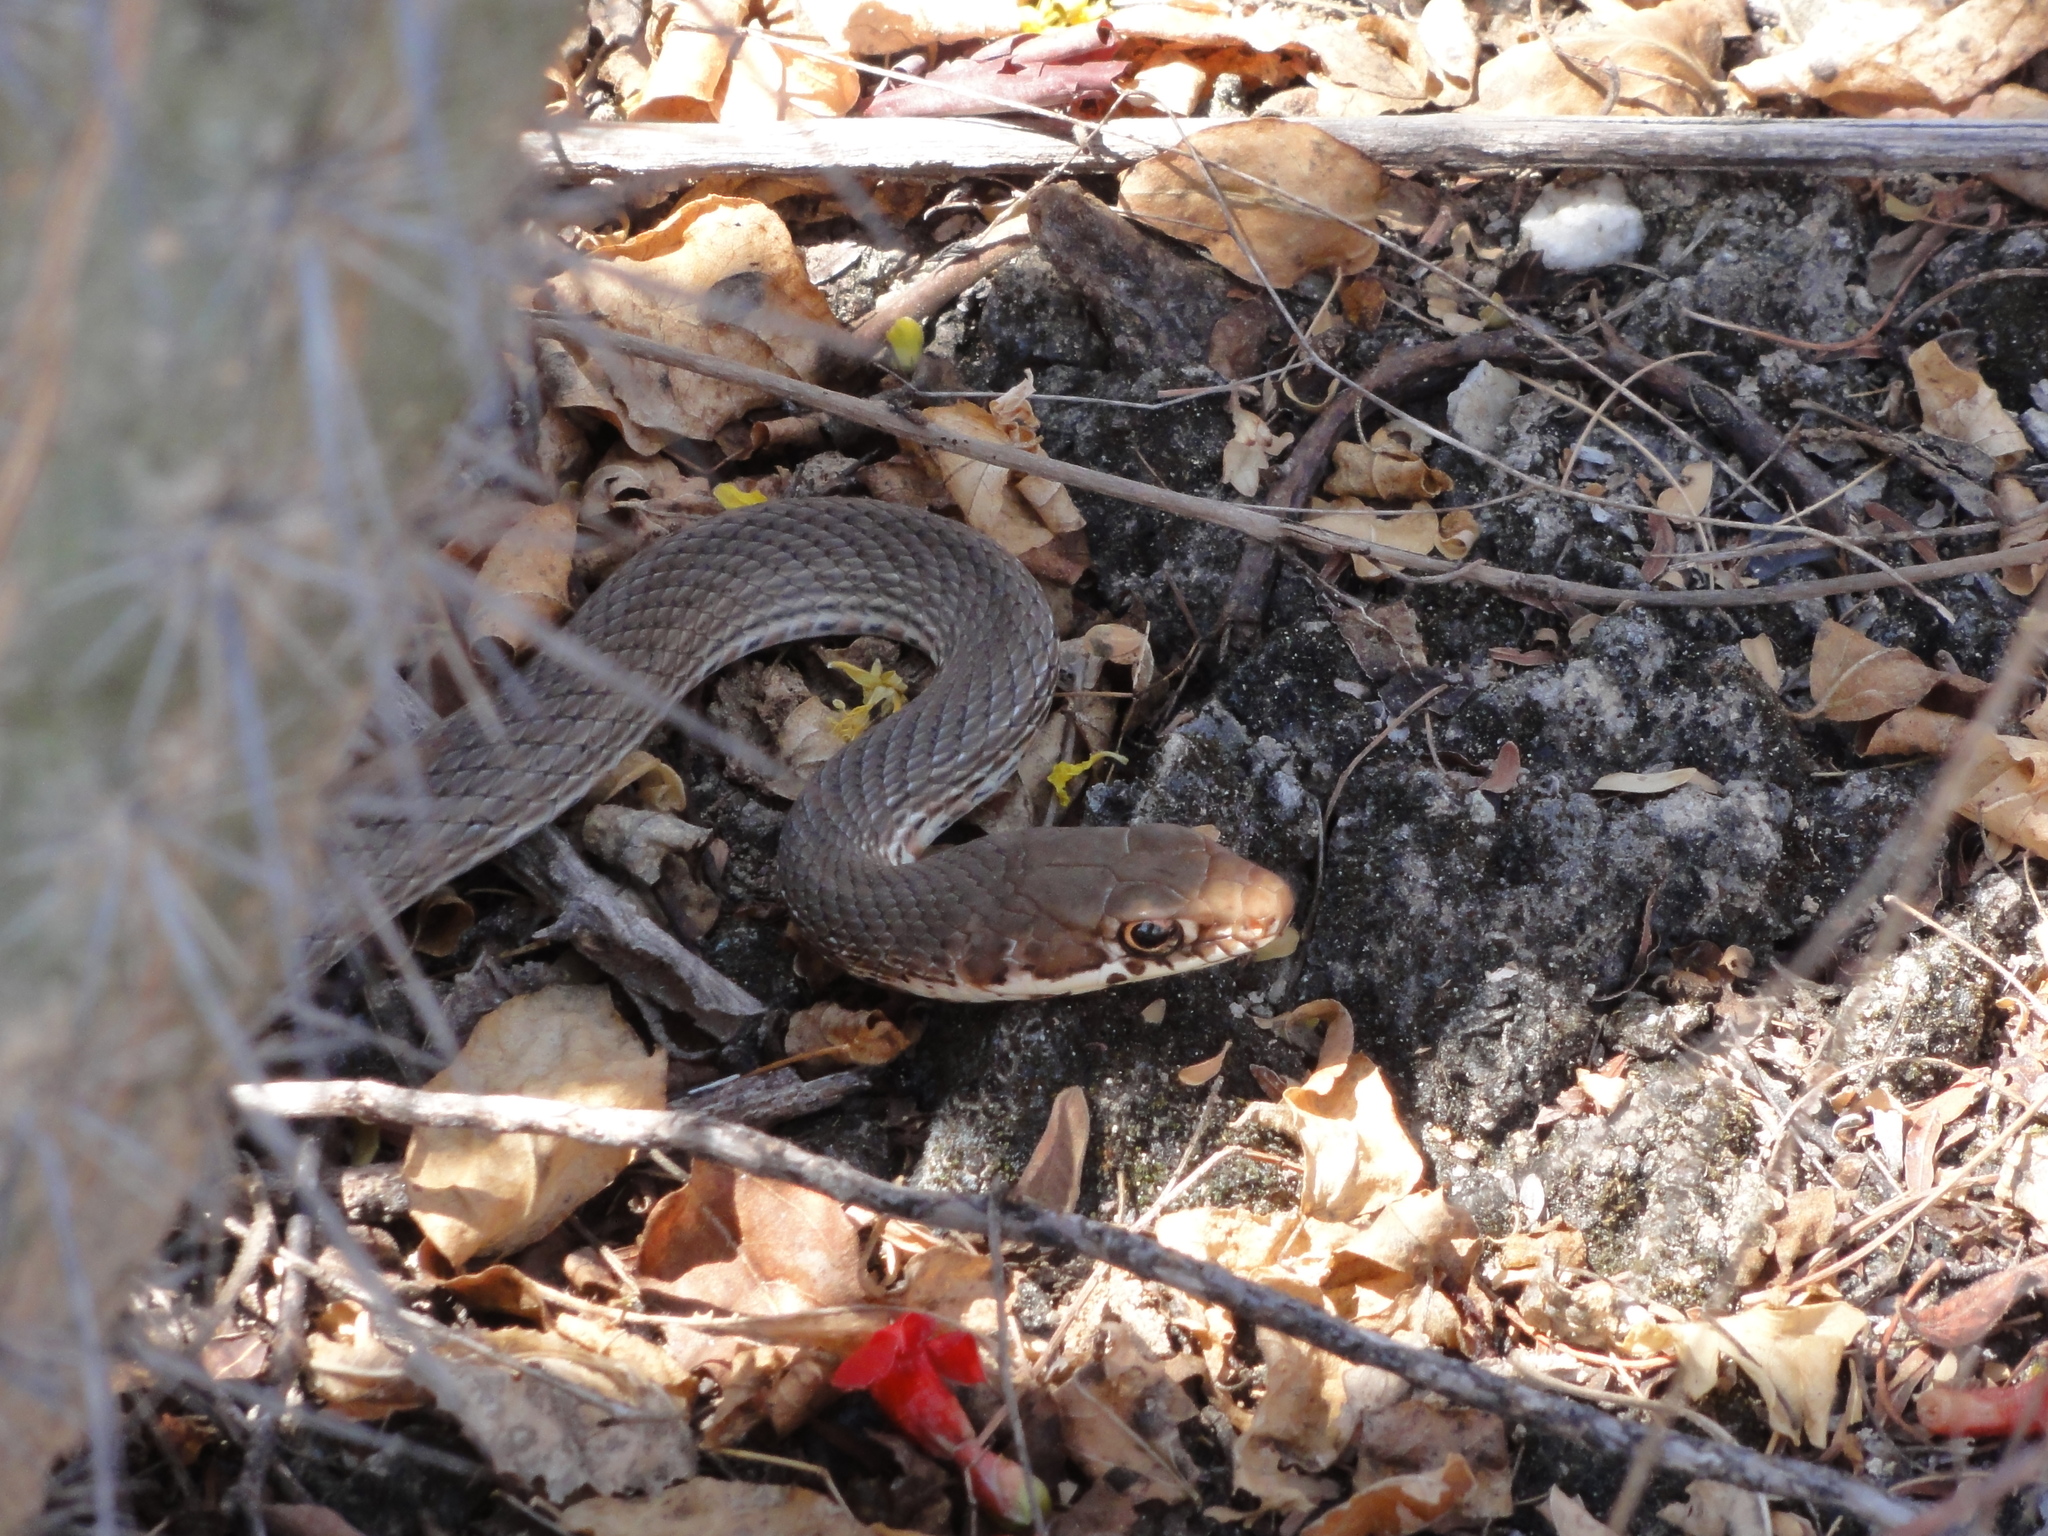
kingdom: Animalia
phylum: Chordata
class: Squamata
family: Colubridae
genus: Masticophis
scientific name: Masticophis mentovarius
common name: Neotropical whip snake
